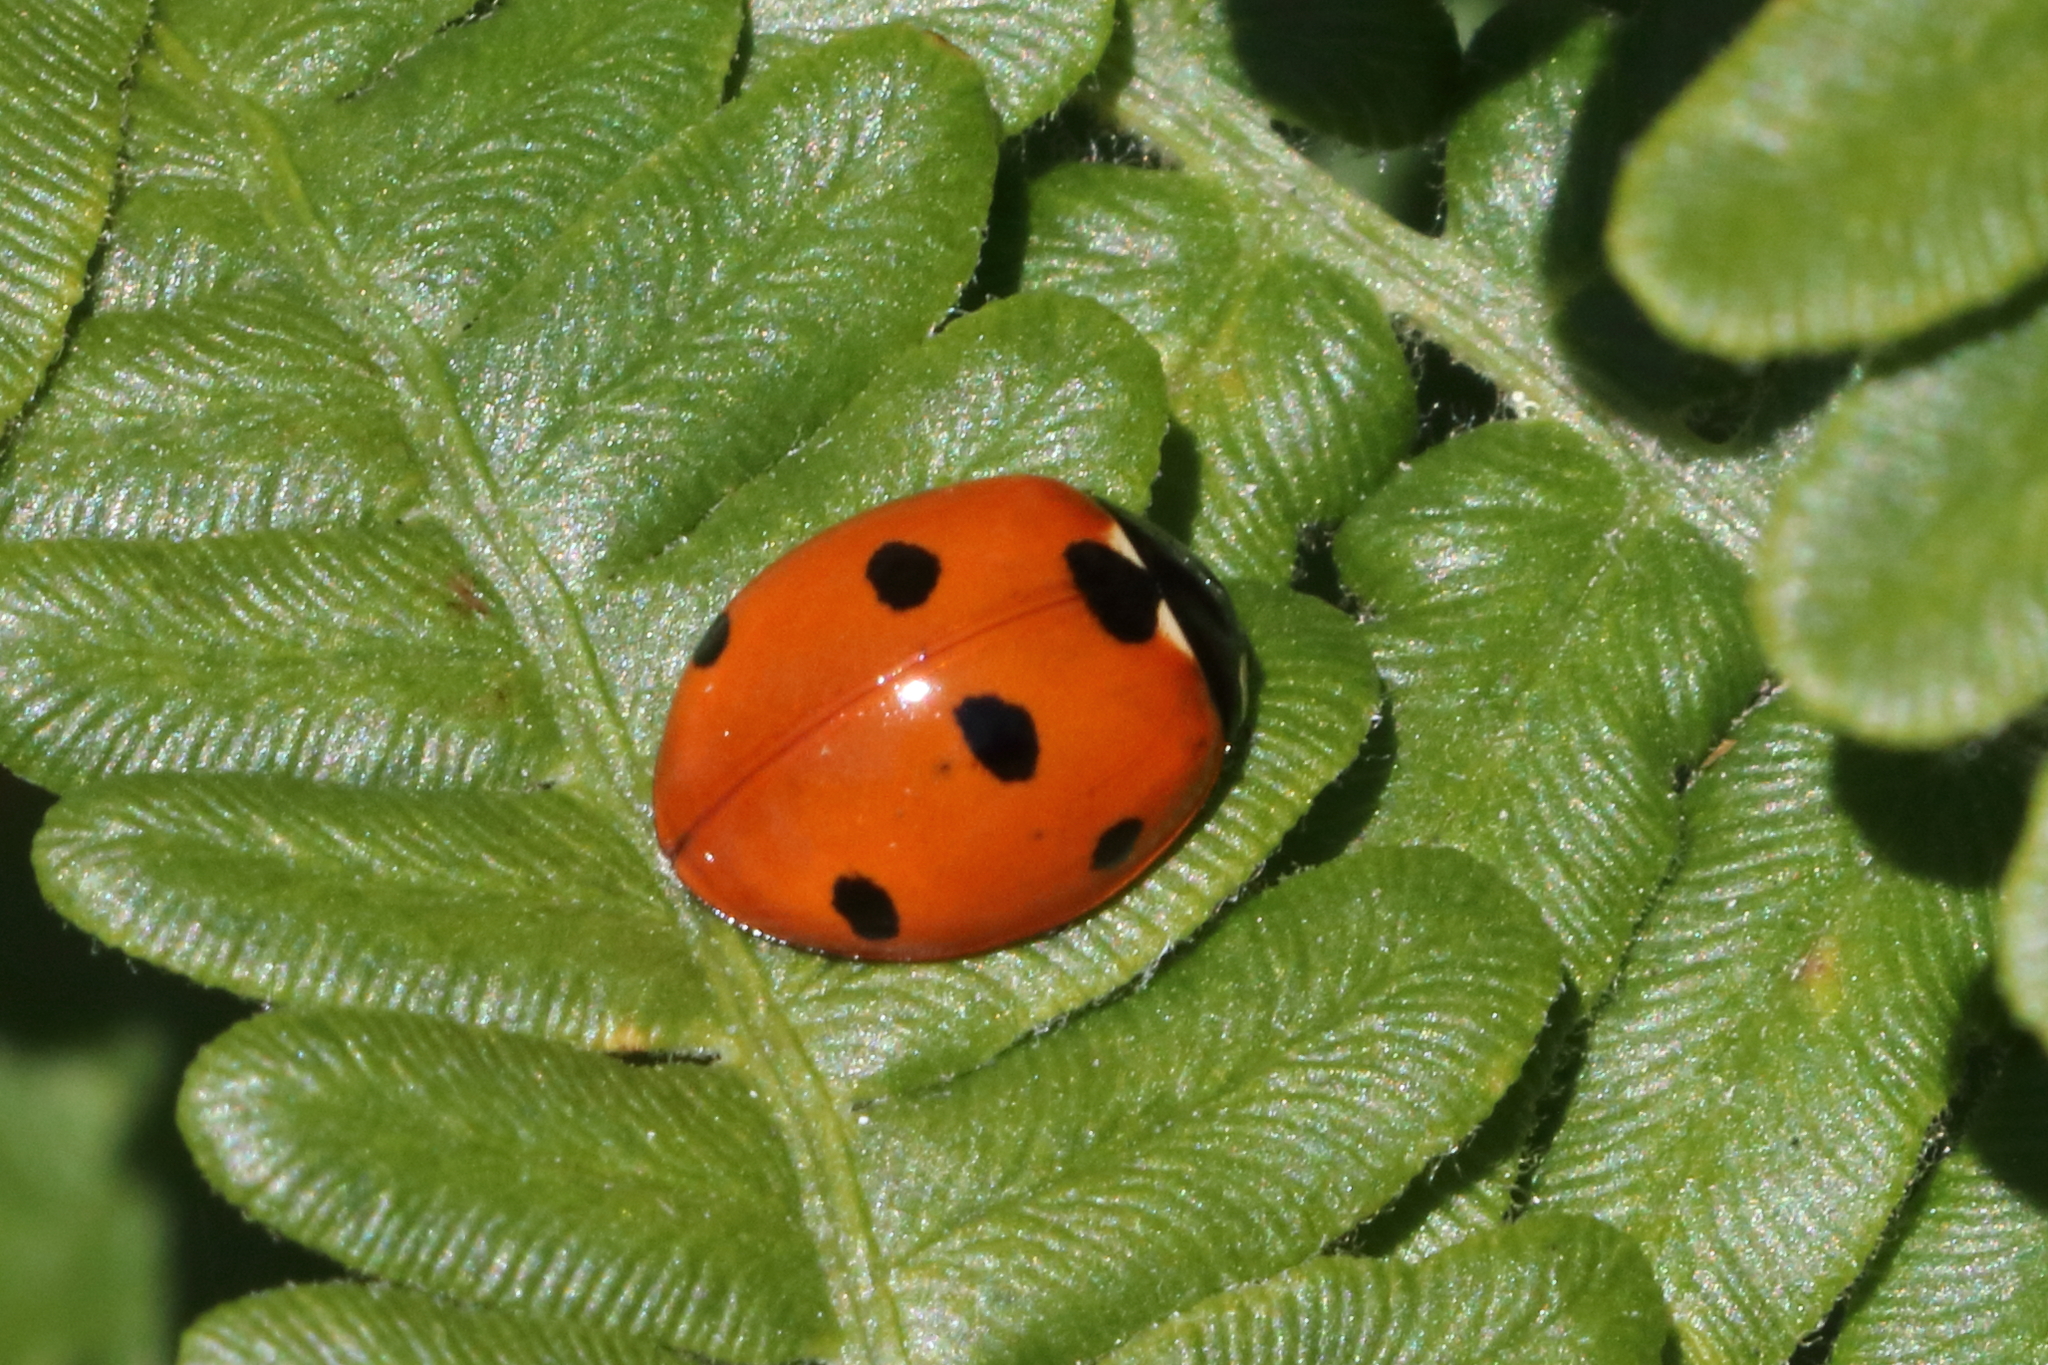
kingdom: Animalia
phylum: Arthropoda
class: Insecta
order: Coleoptera
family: Coccinellidae
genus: Coccinella
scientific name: Coccinella septempunctata
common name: Sevenspotted lady beetle
